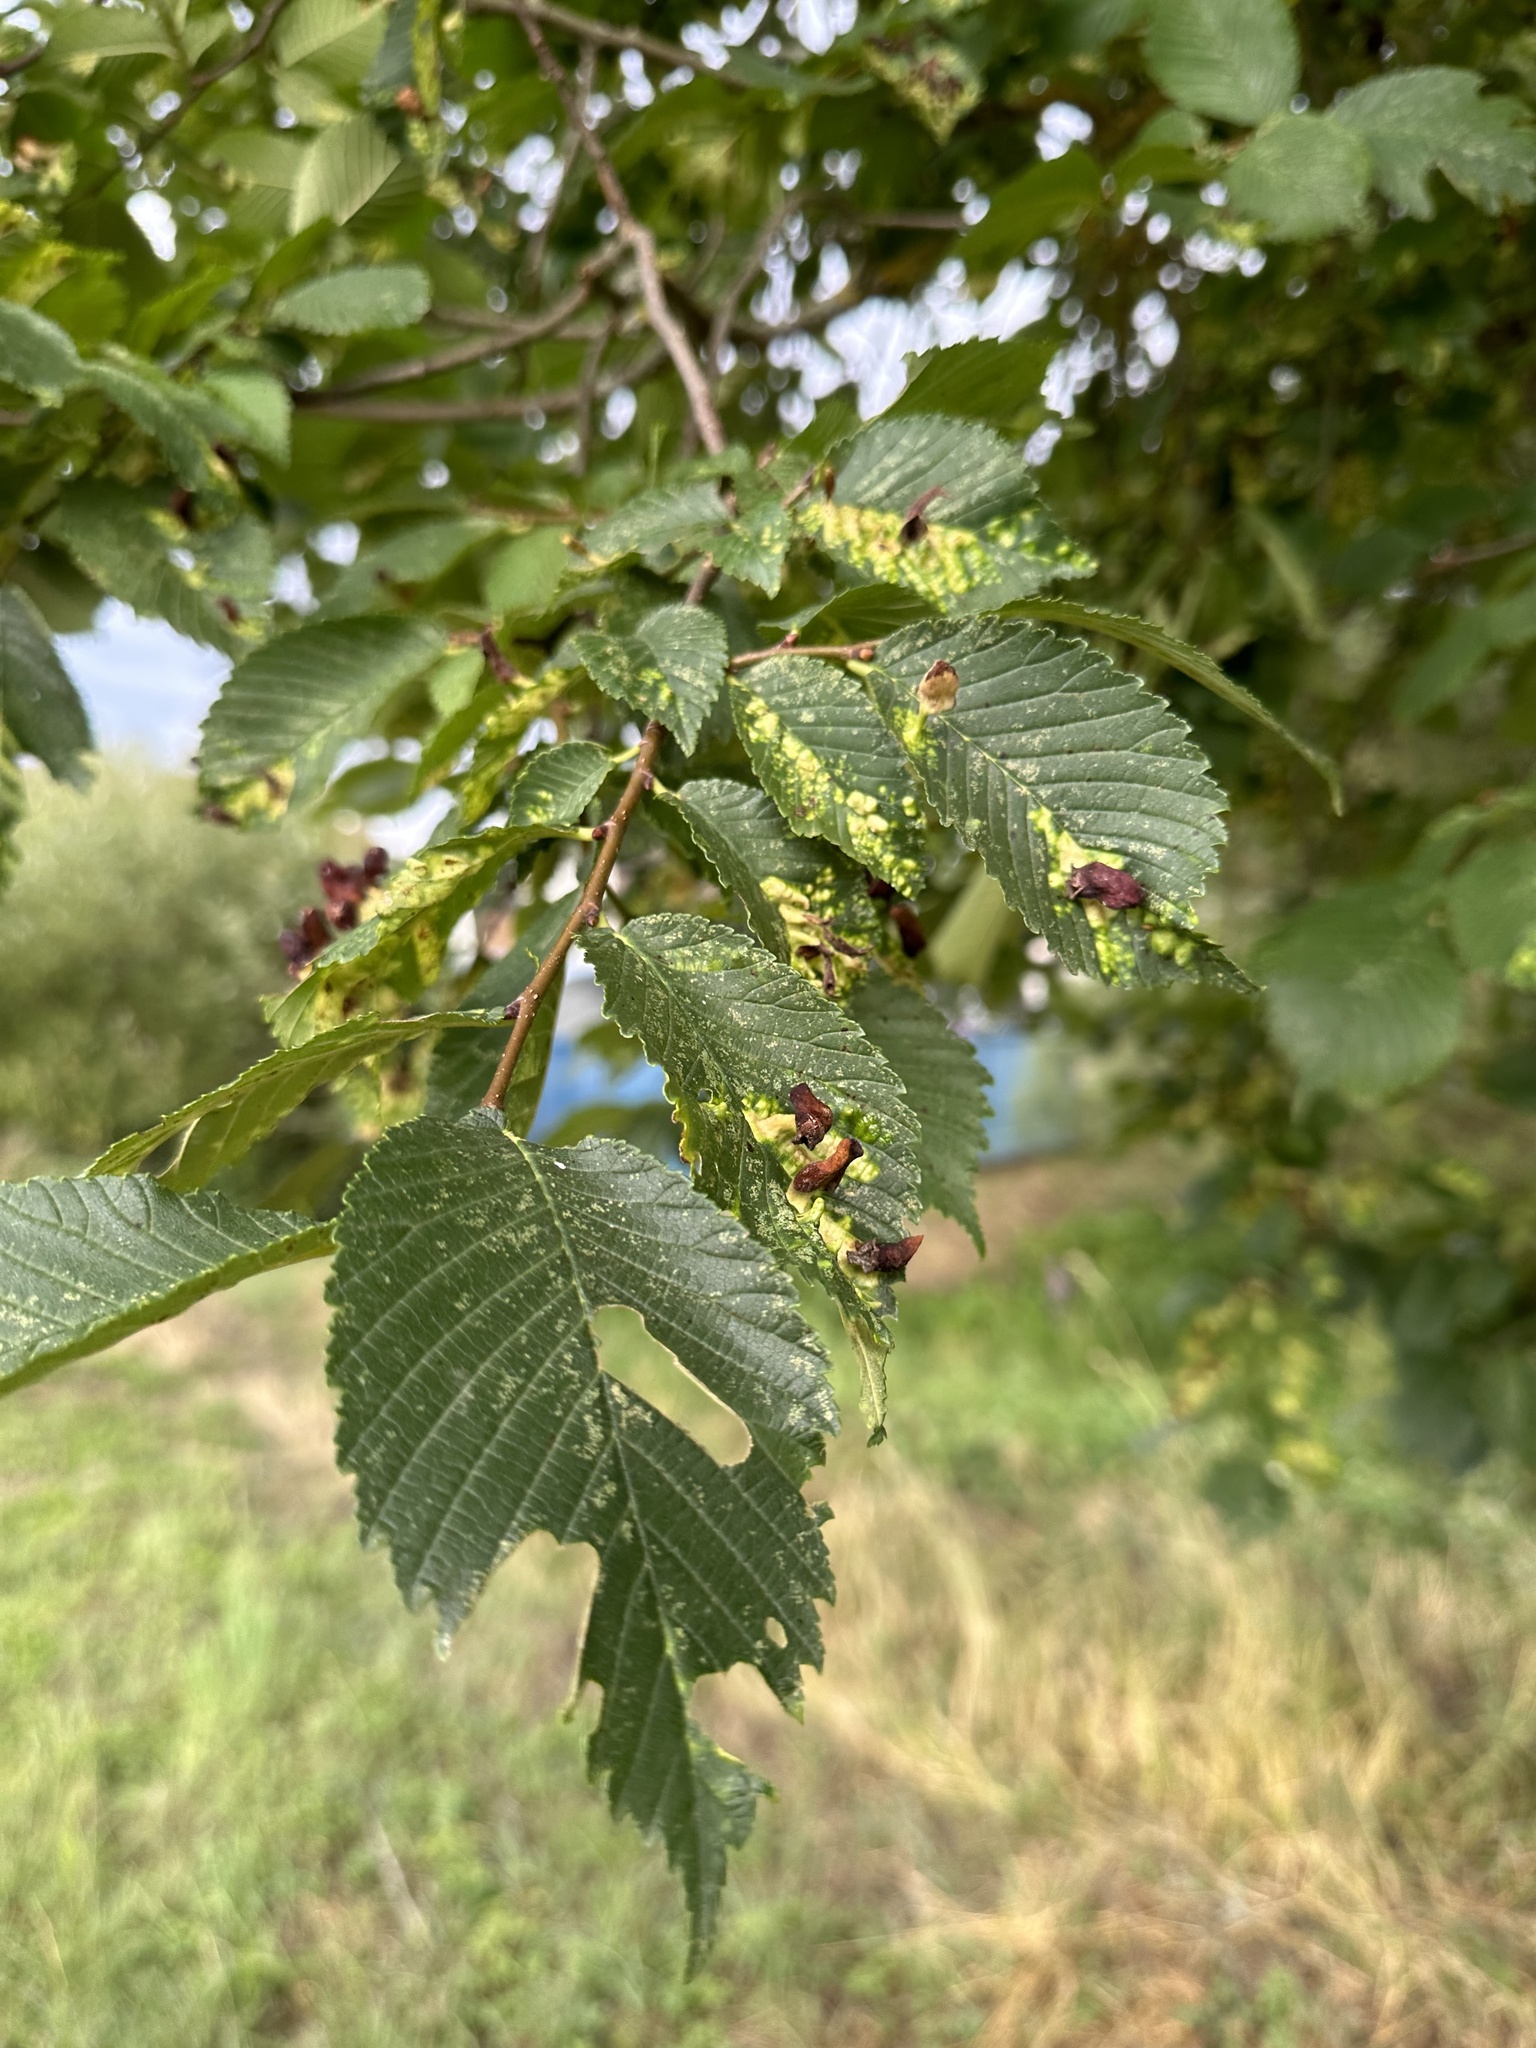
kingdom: Animalia
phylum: Arthropoda
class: Insecta
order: Hemiptera
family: Aphididae
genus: Tetraneura
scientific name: Tetraneura ulmi
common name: Aphid
